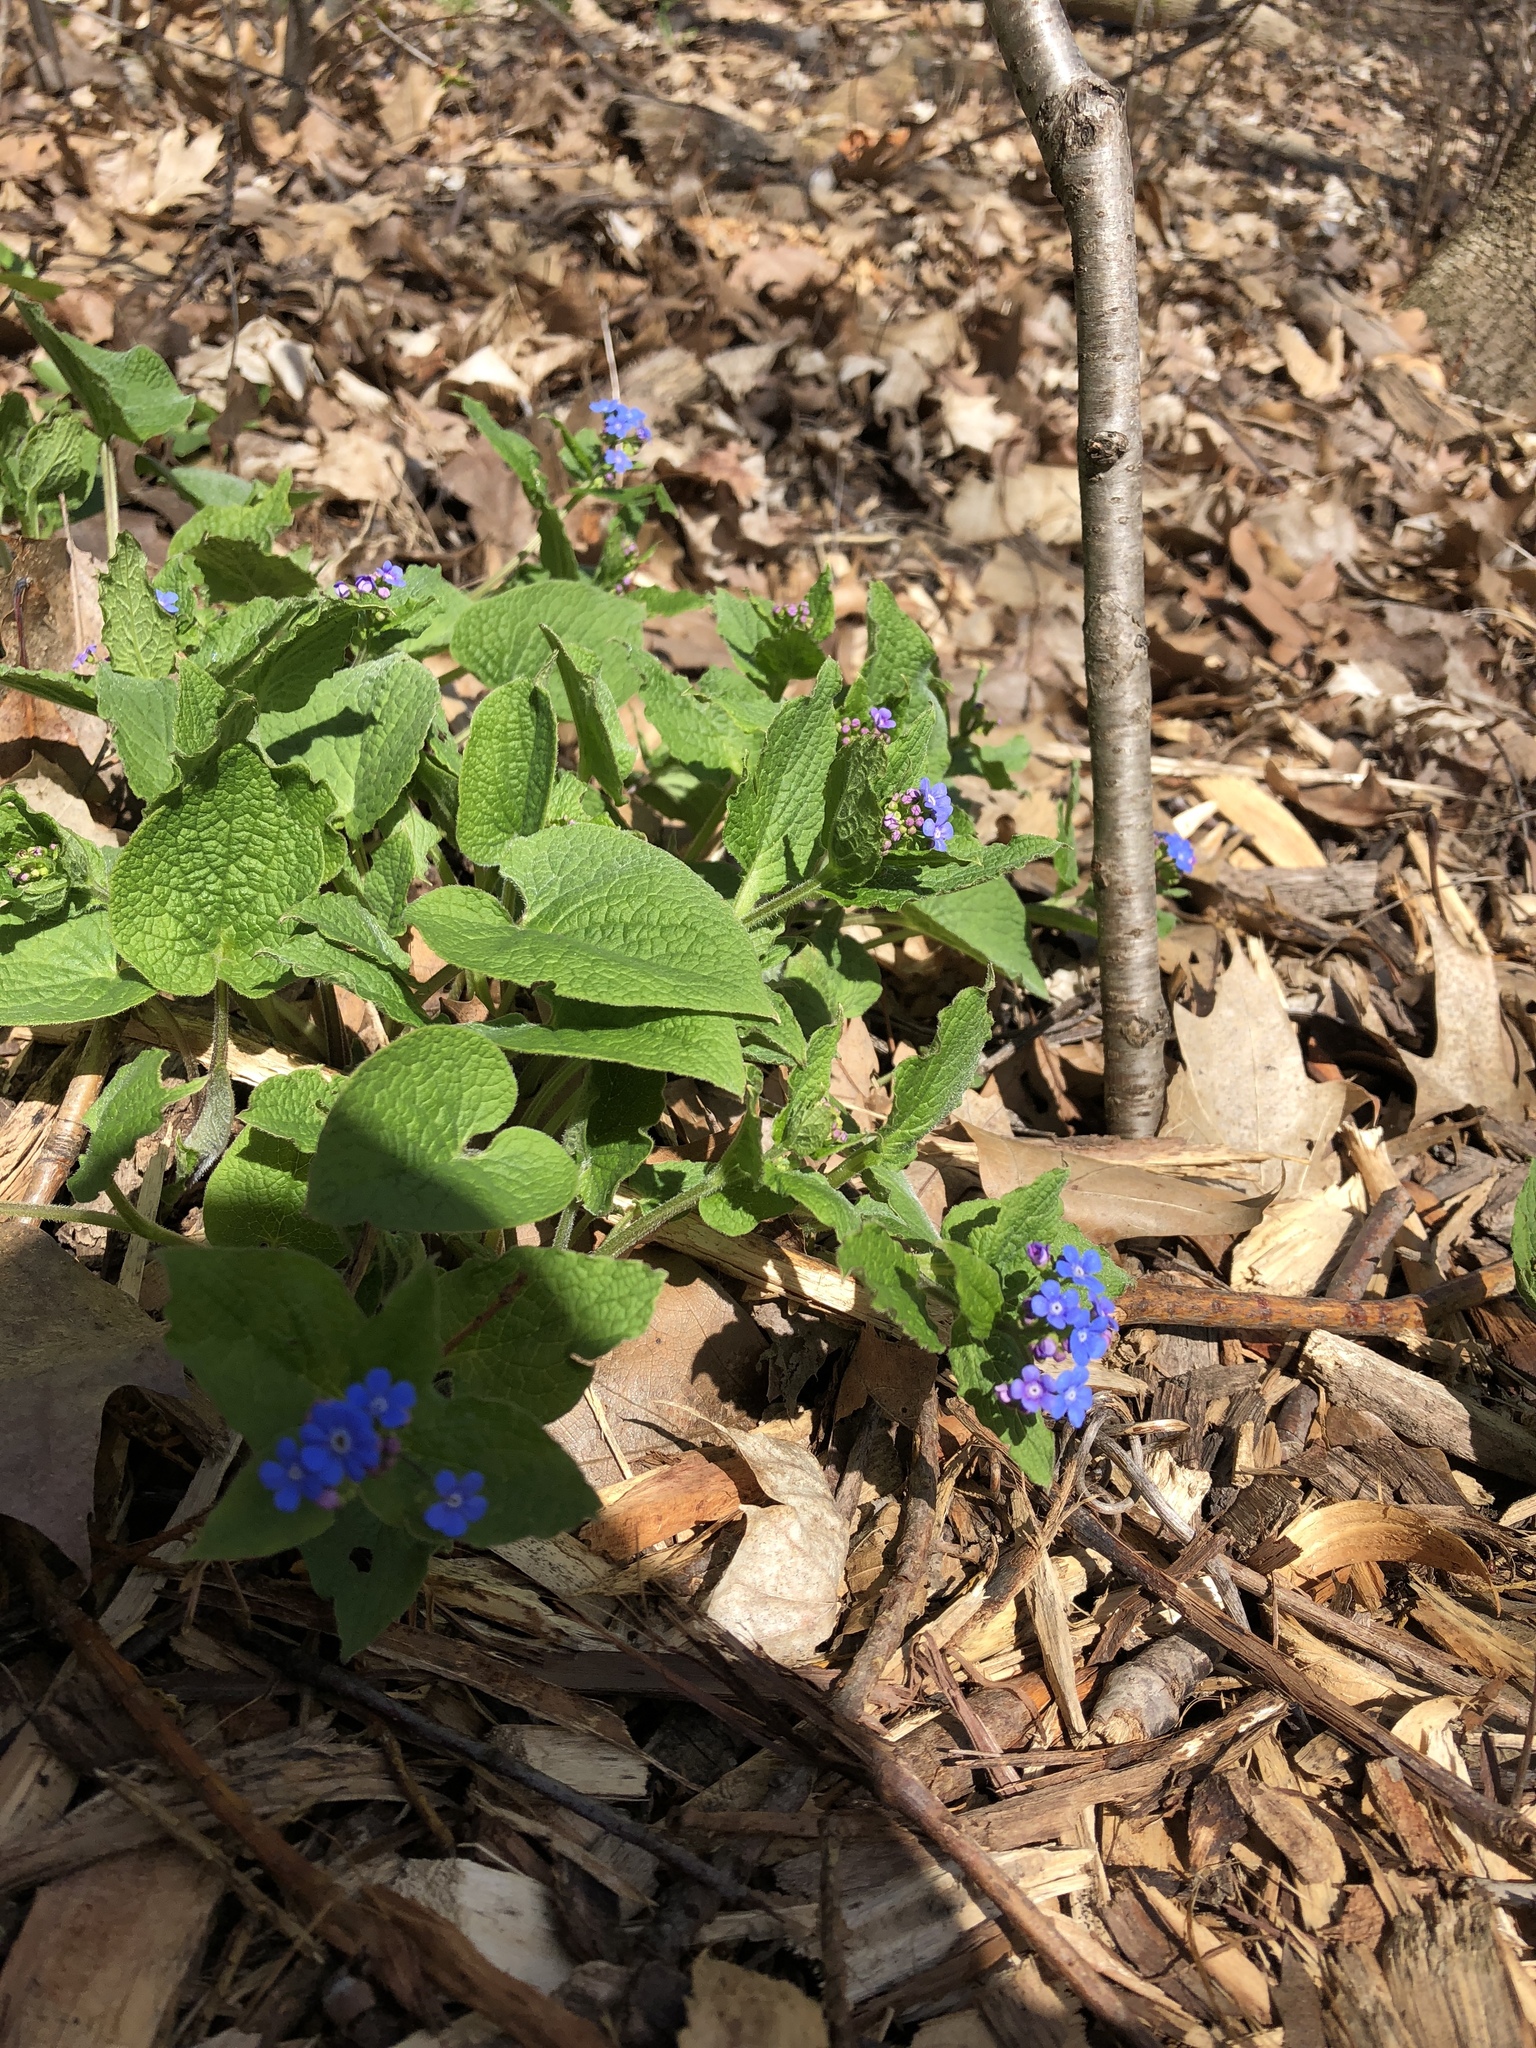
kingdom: Plantae
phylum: Tracheophyta
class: Magnoliopsida
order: Boraginales
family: Boraginaceae
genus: Brunnera
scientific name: Brunnera macrophylla
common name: Great forget-me-not
